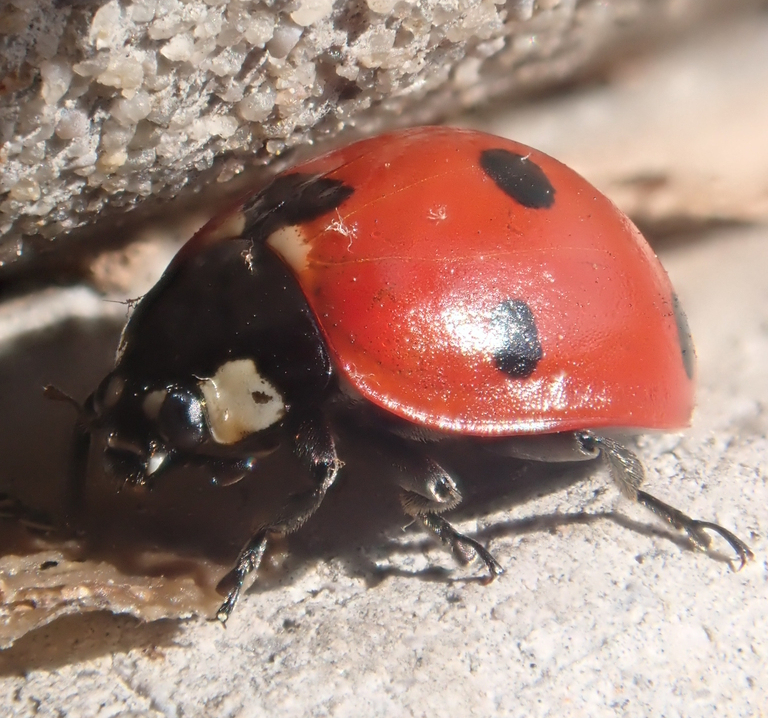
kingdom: Animalia
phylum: Arthropoda
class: Insecta
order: Coleoptera
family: Coccinellidae
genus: Coccinella
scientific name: Coccinella septempunctata
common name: Sevenspotted lady beetle
